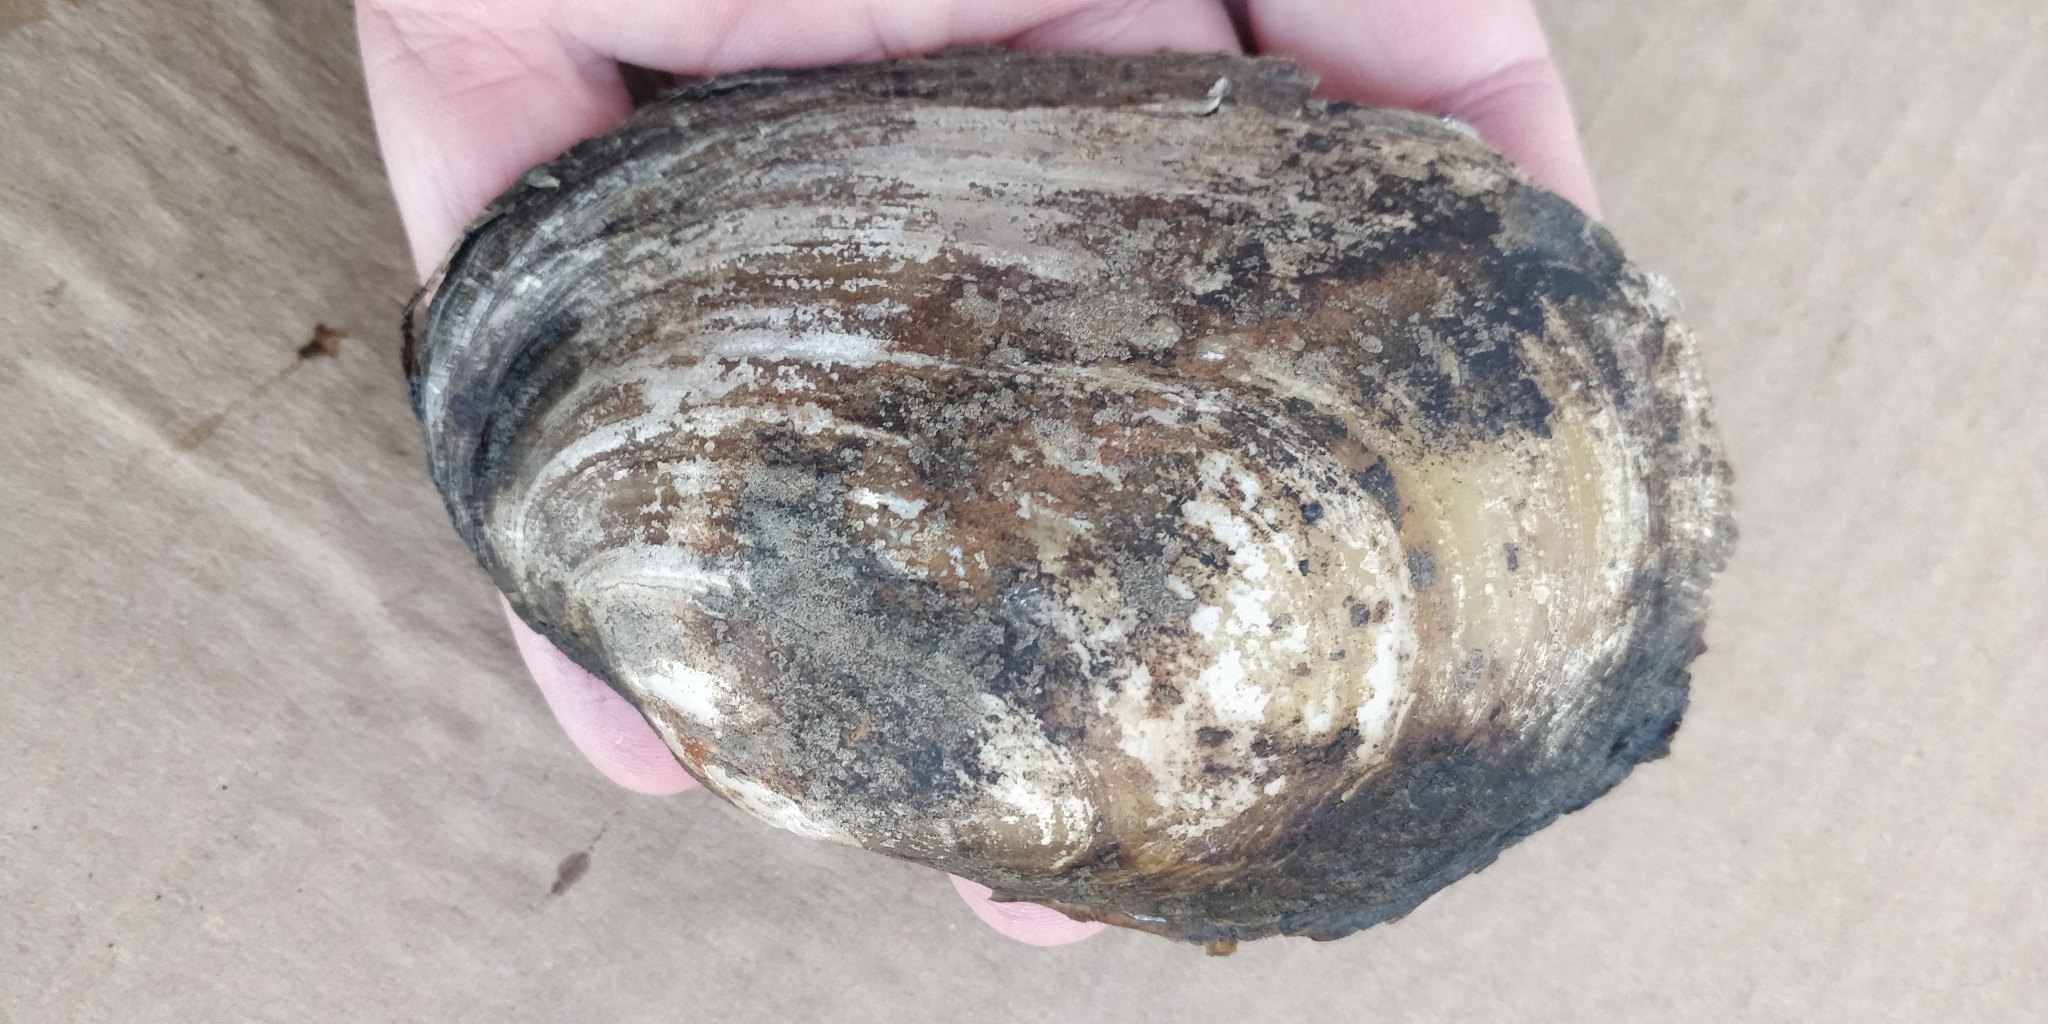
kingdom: Animalia
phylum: Mollusca
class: Bivalvia
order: Unionida
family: Unionidae
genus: Potamilus
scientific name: Potamilus fragilis
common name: Fragile papershell
